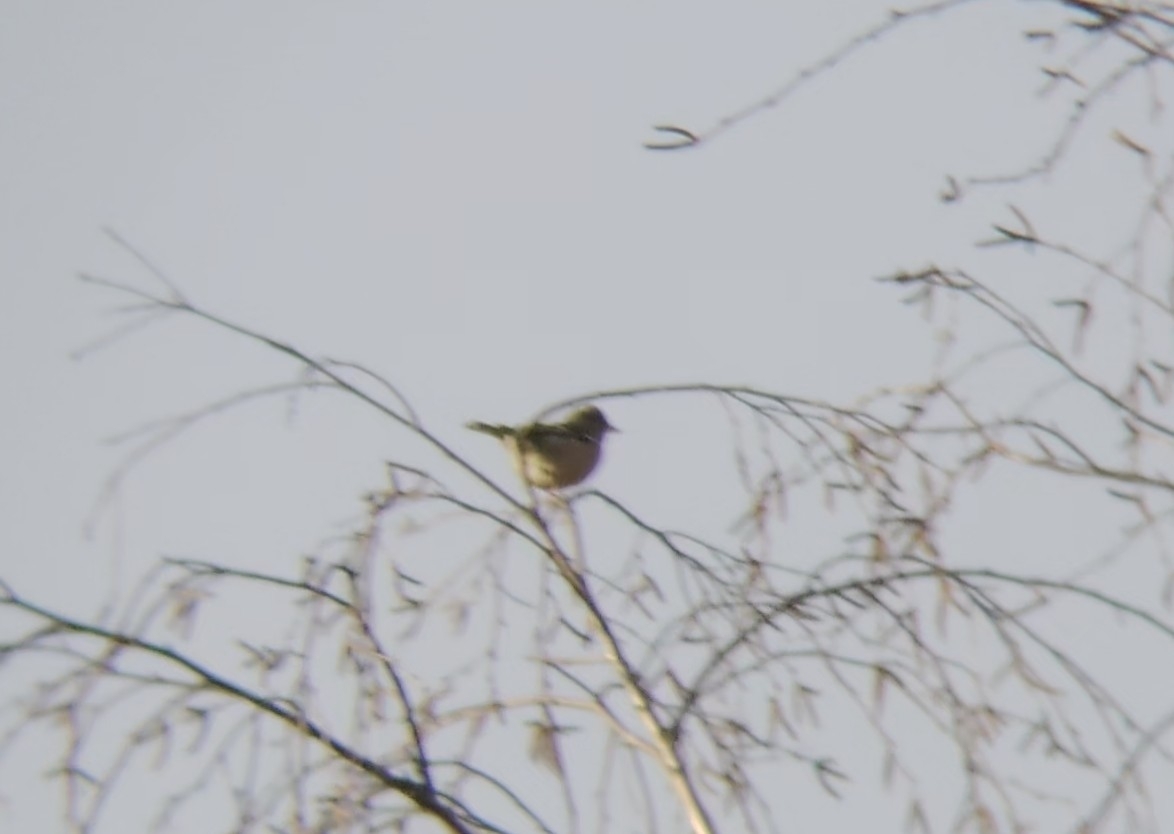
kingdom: Animalia
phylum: Chordata
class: Aves
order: Passeriformes
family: Fringillidae
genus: Fringilla
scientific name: Fringilla coelebs
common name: Common chaffinch
